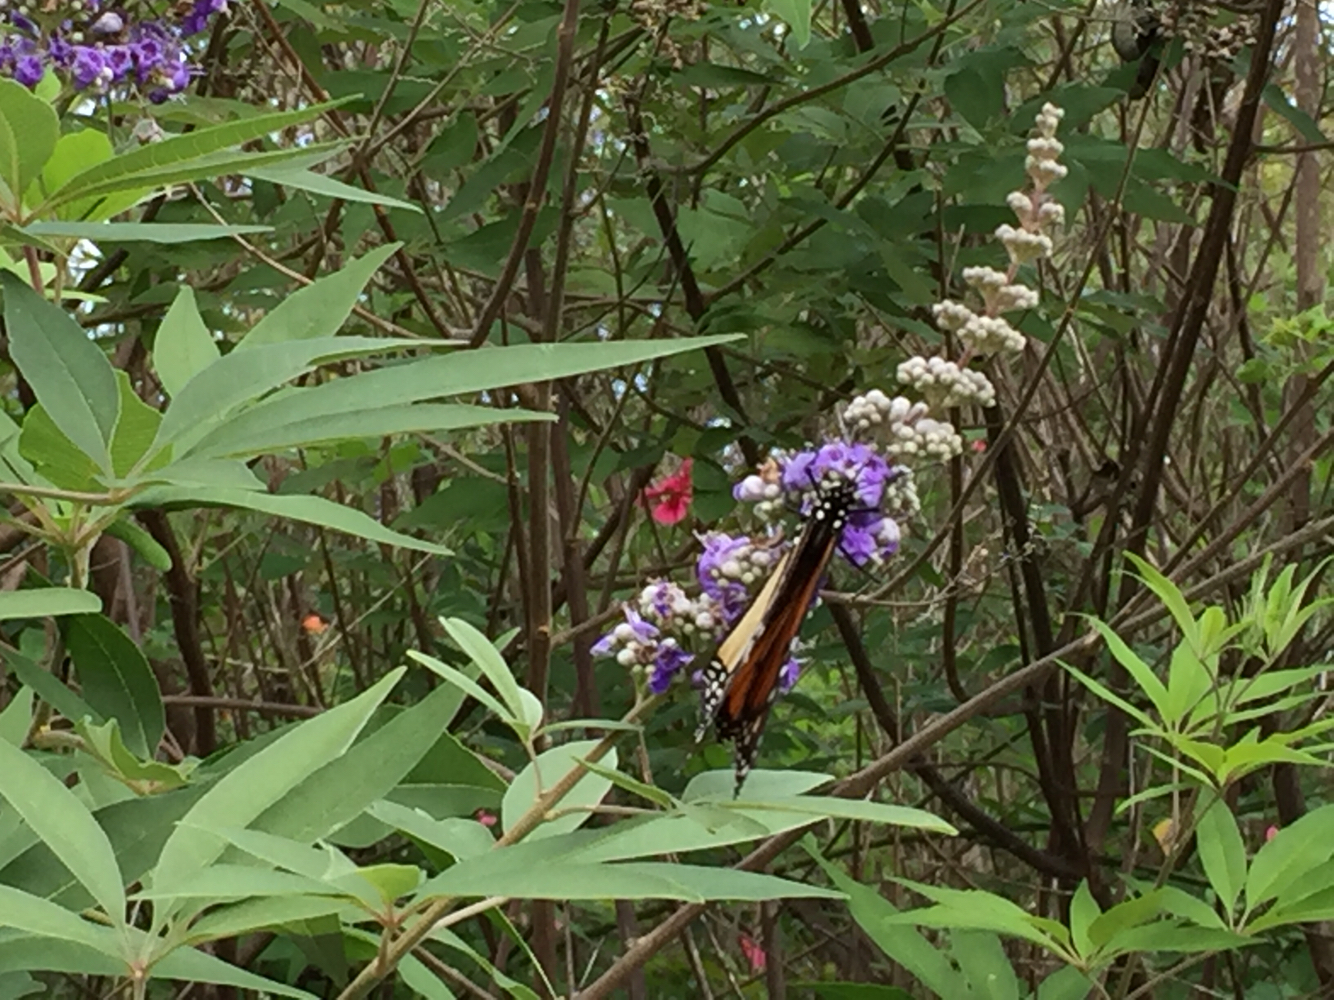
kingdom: Animalia
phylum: Arthropoda
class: Insecta
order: Lepidoptera
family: Nymphalidae
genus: Danaus
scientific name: Danaus plexippus
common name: Monarch
